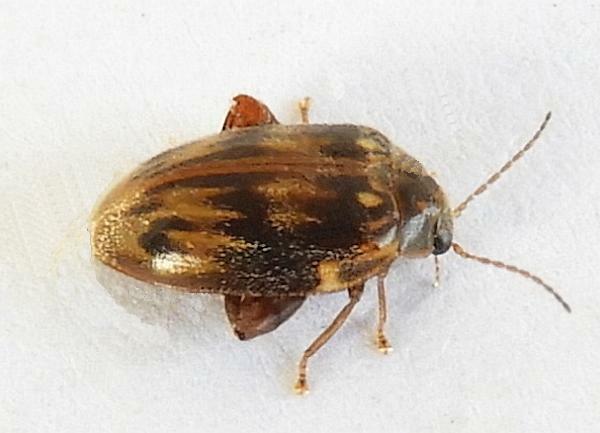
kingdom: Animalia
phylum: Arthropoda
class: Insecta
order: Coleoptera
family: Scirtidae
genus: Ora
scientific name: Ora texana
